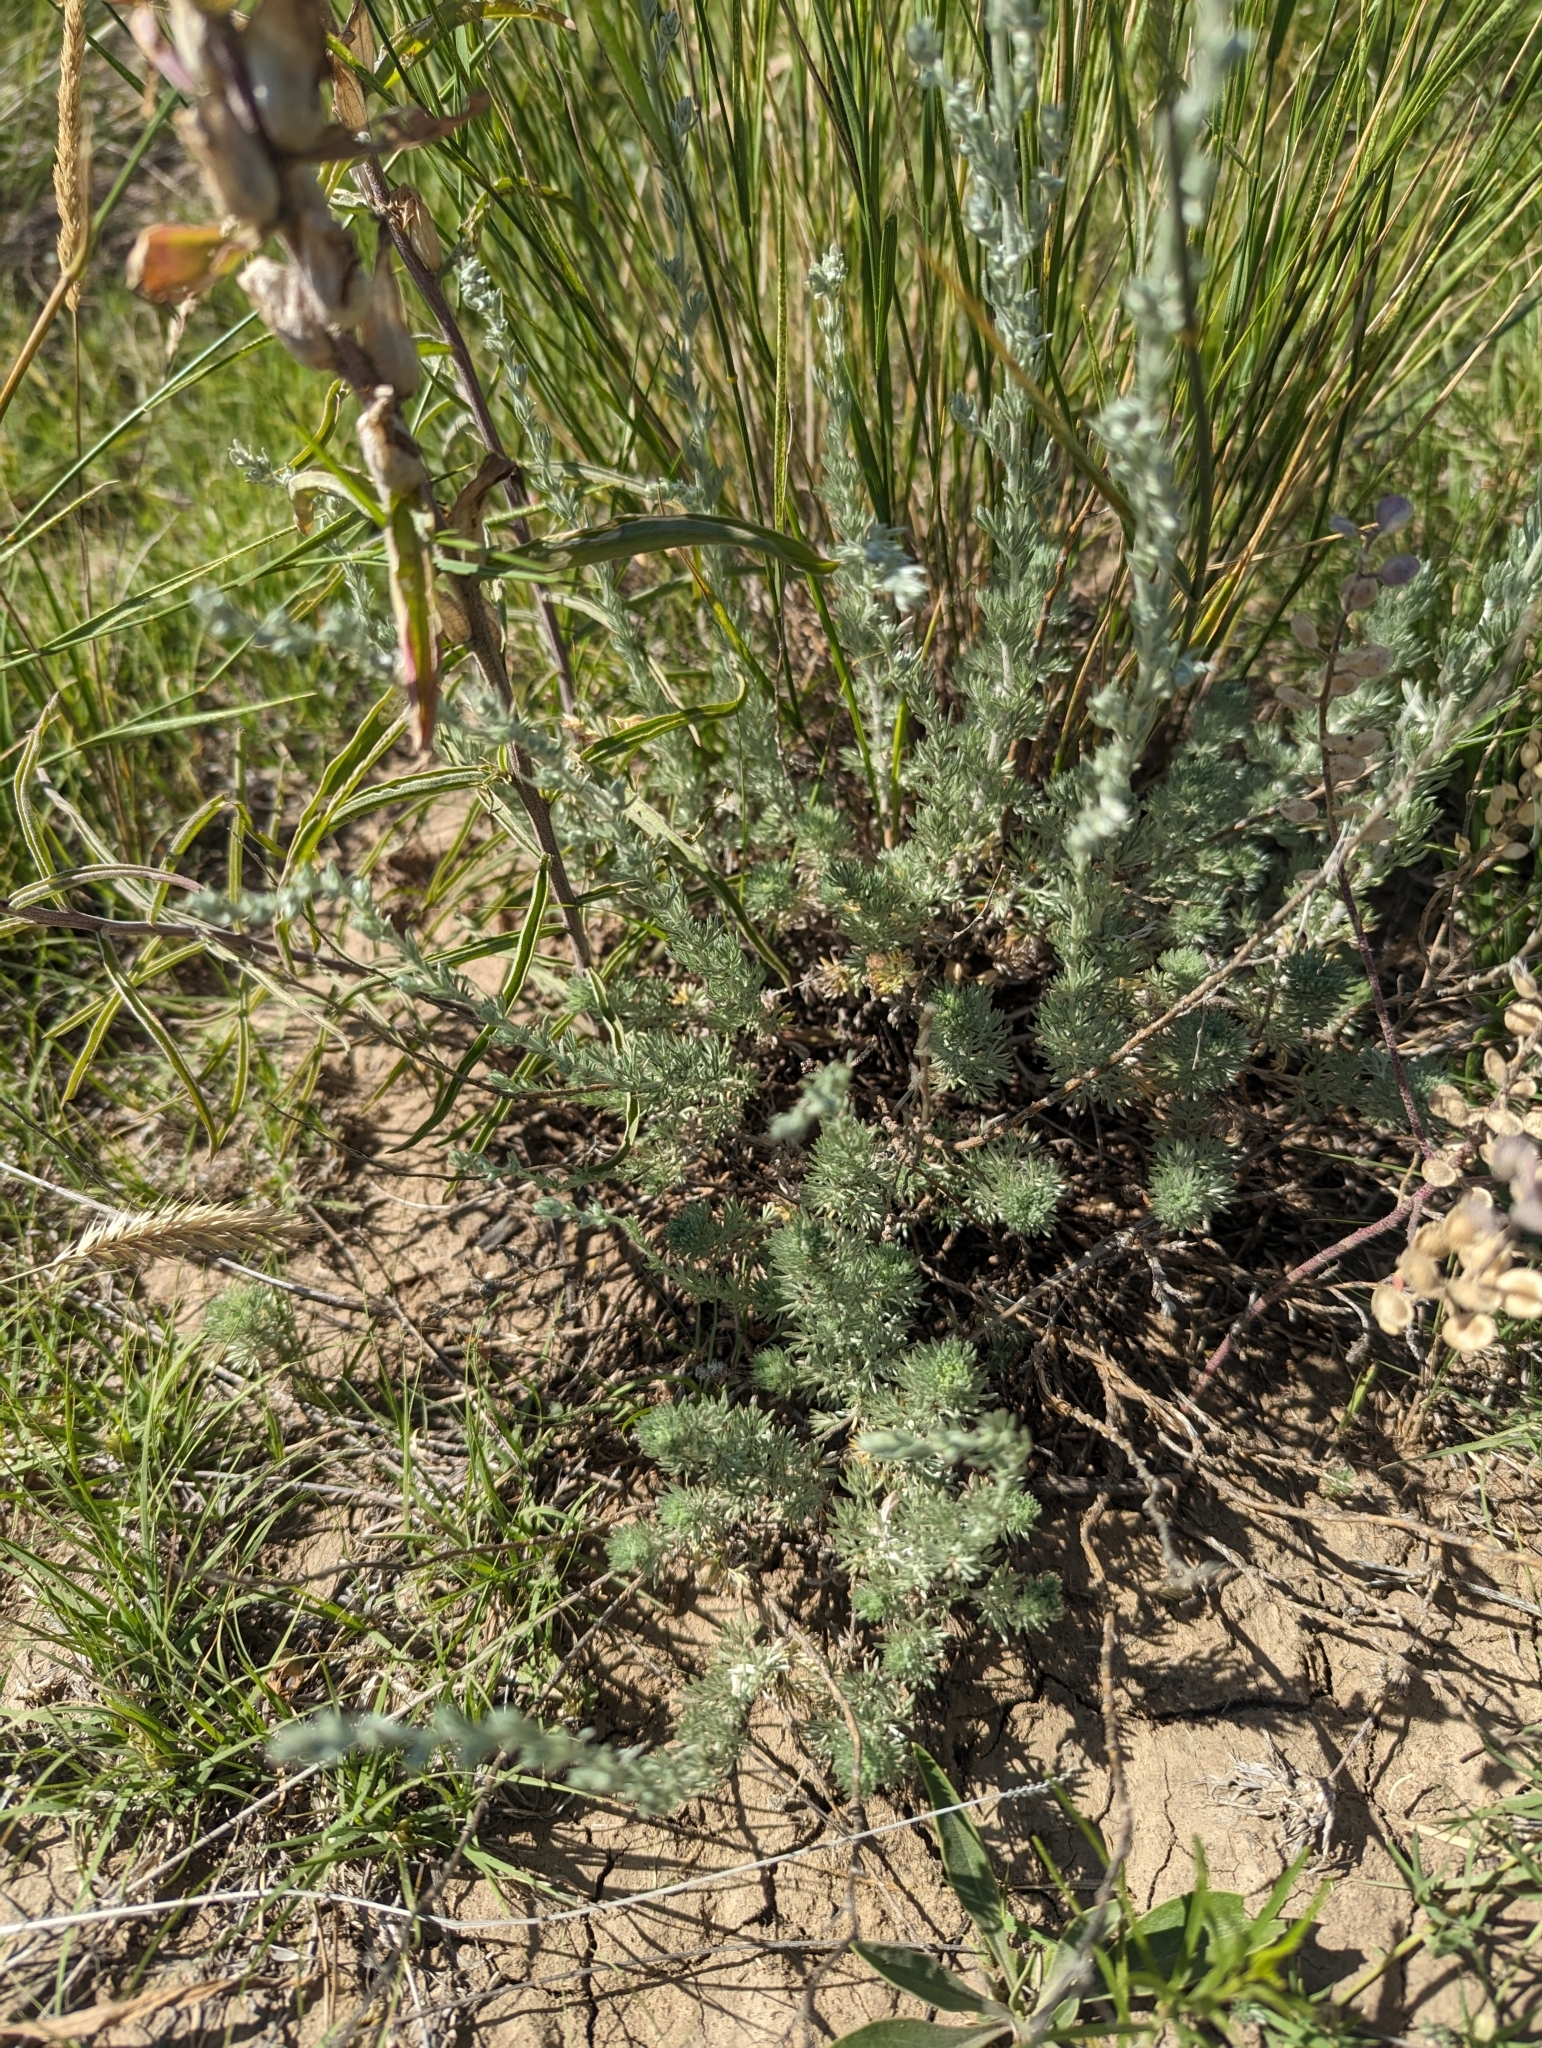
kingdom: Plantae
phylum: Tracheophyta
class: Magnoliopsida
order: Lamiales
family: Orobanchaceae
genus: Castilleja
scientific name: Castilleja integra
